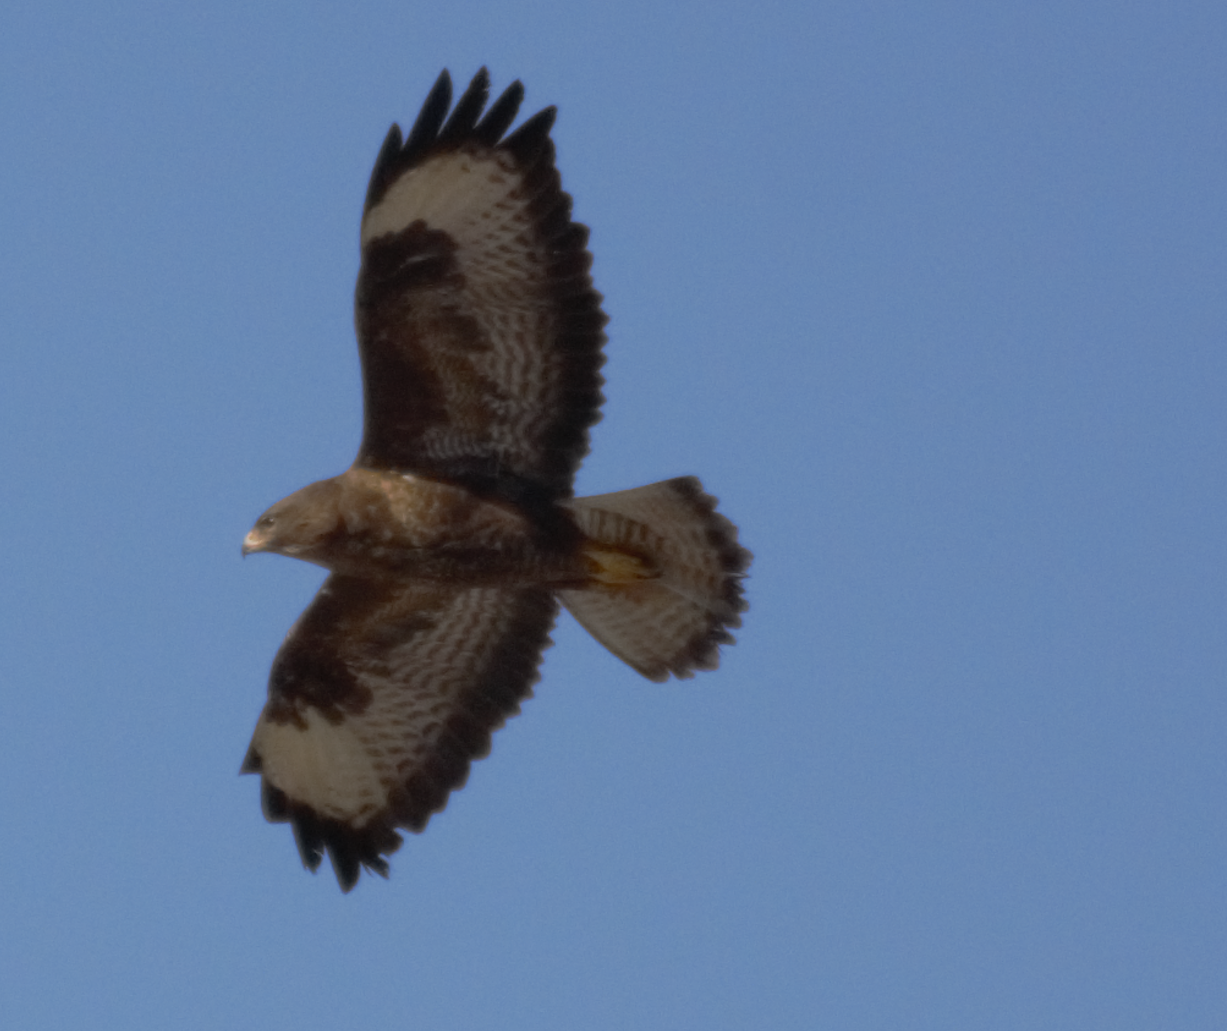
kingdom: Animalia
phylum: Chordata
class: Aves
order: Accipitriformes
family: Accipitridae
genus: Buteo
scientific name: Buteo buteo
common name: Common buzzard
